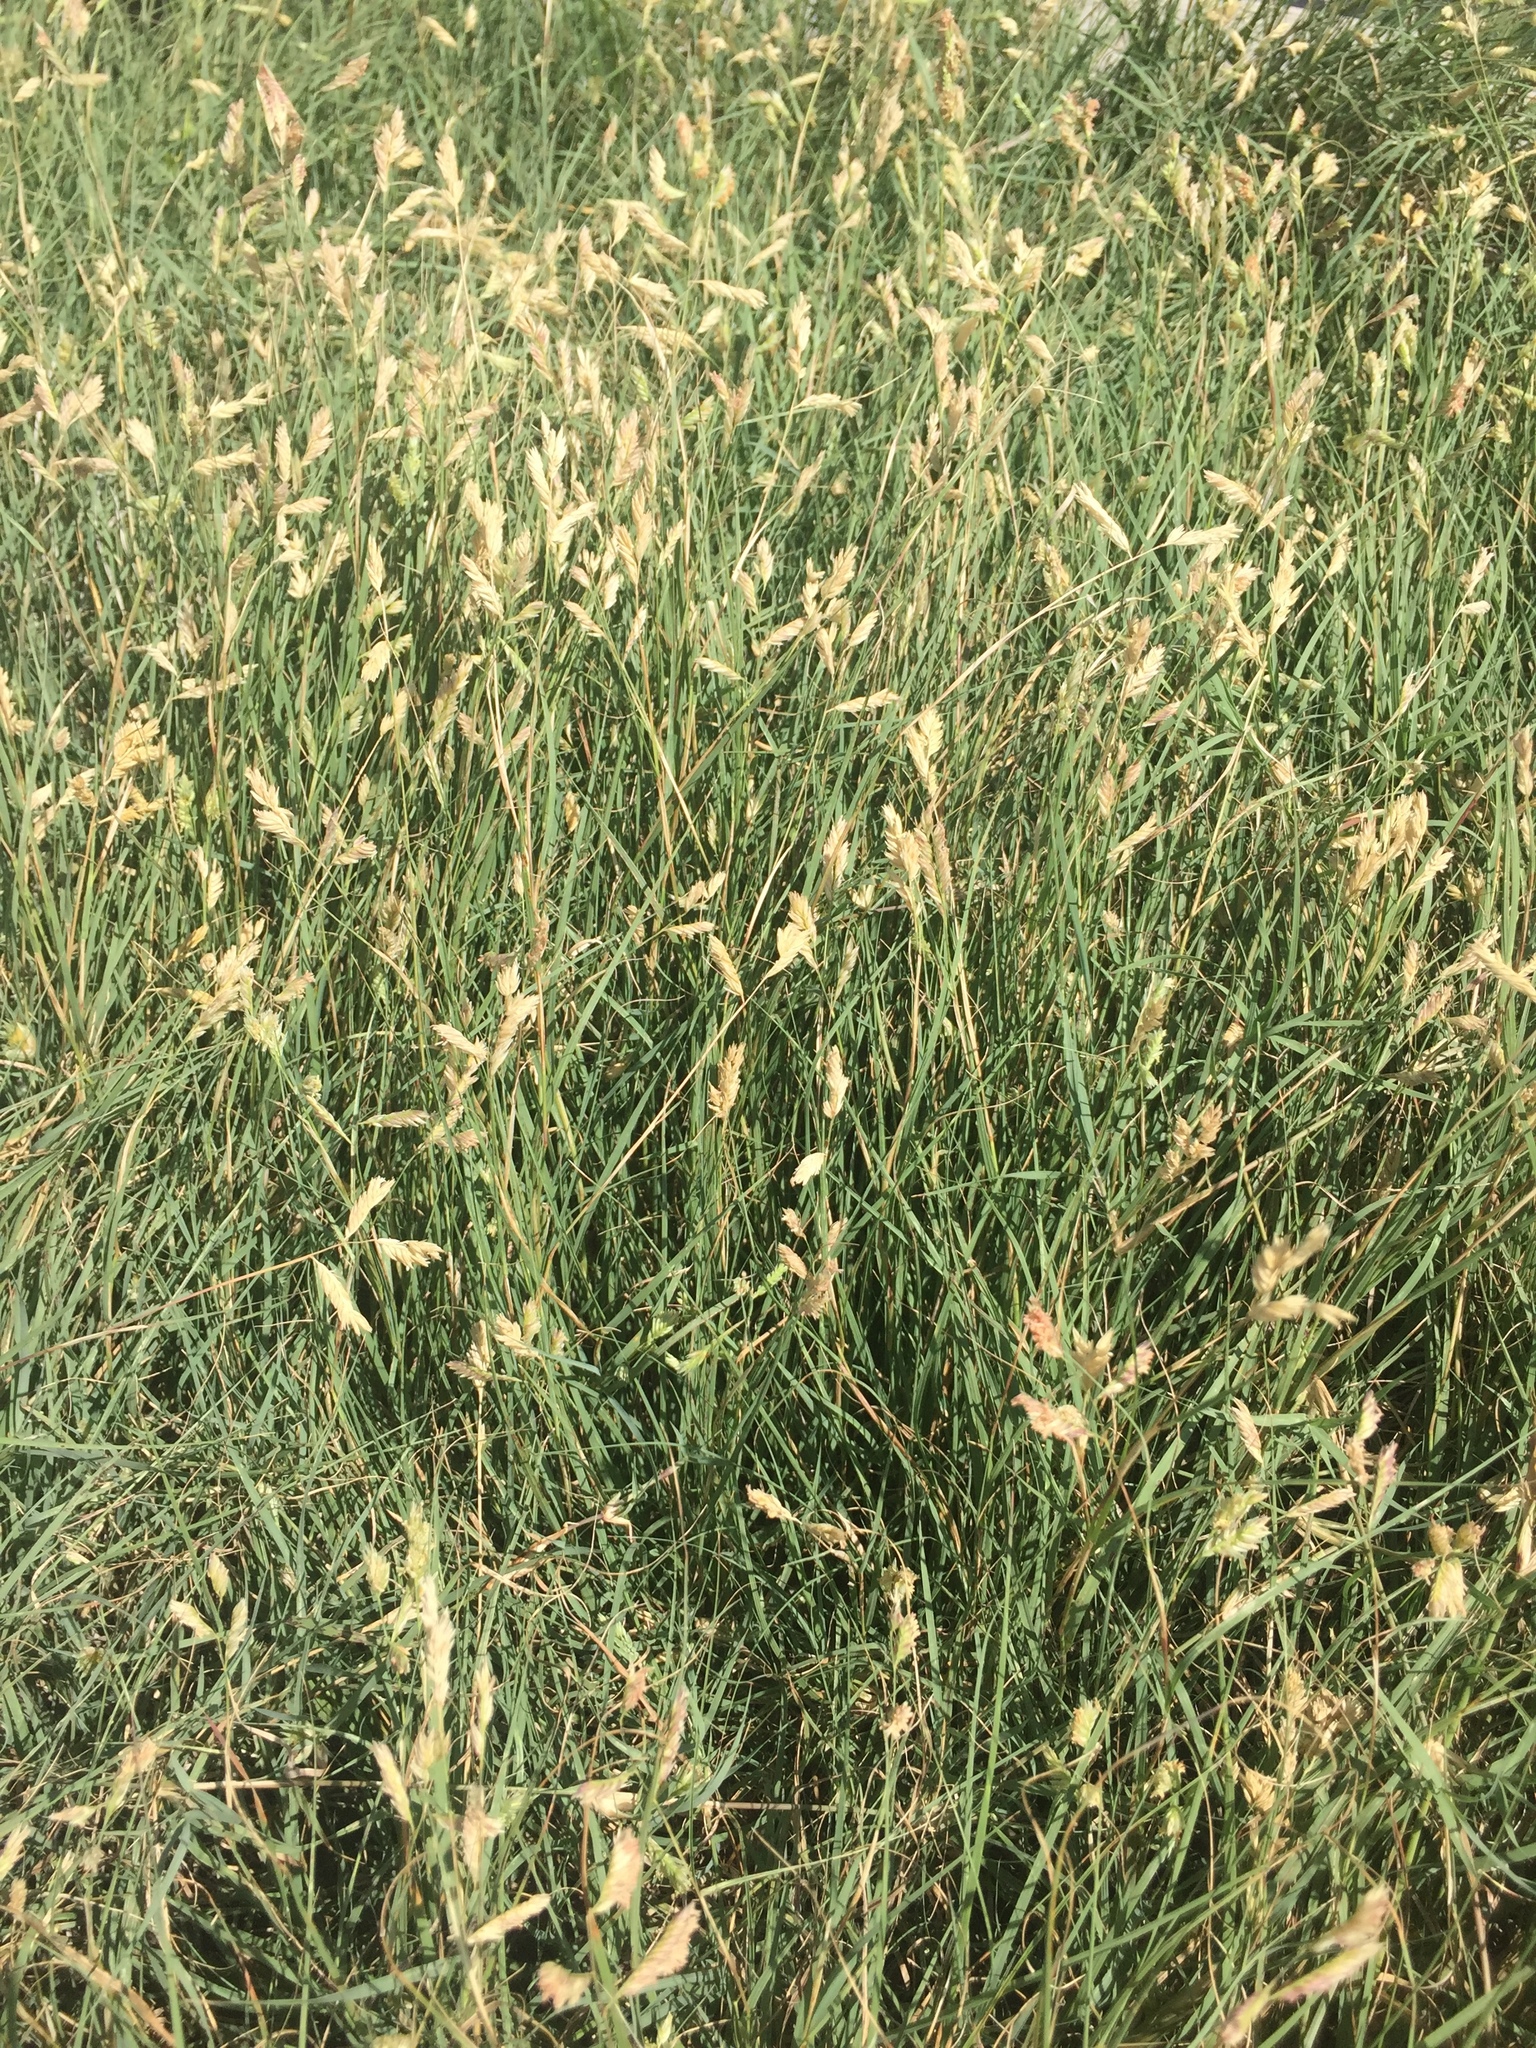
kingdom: Plantae
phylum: Tracheophyta
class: Liliopsida
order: Poales
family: Poaceae
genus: Bouteloua
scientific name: Bouteloua dactyloides
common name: Buffalo grass
